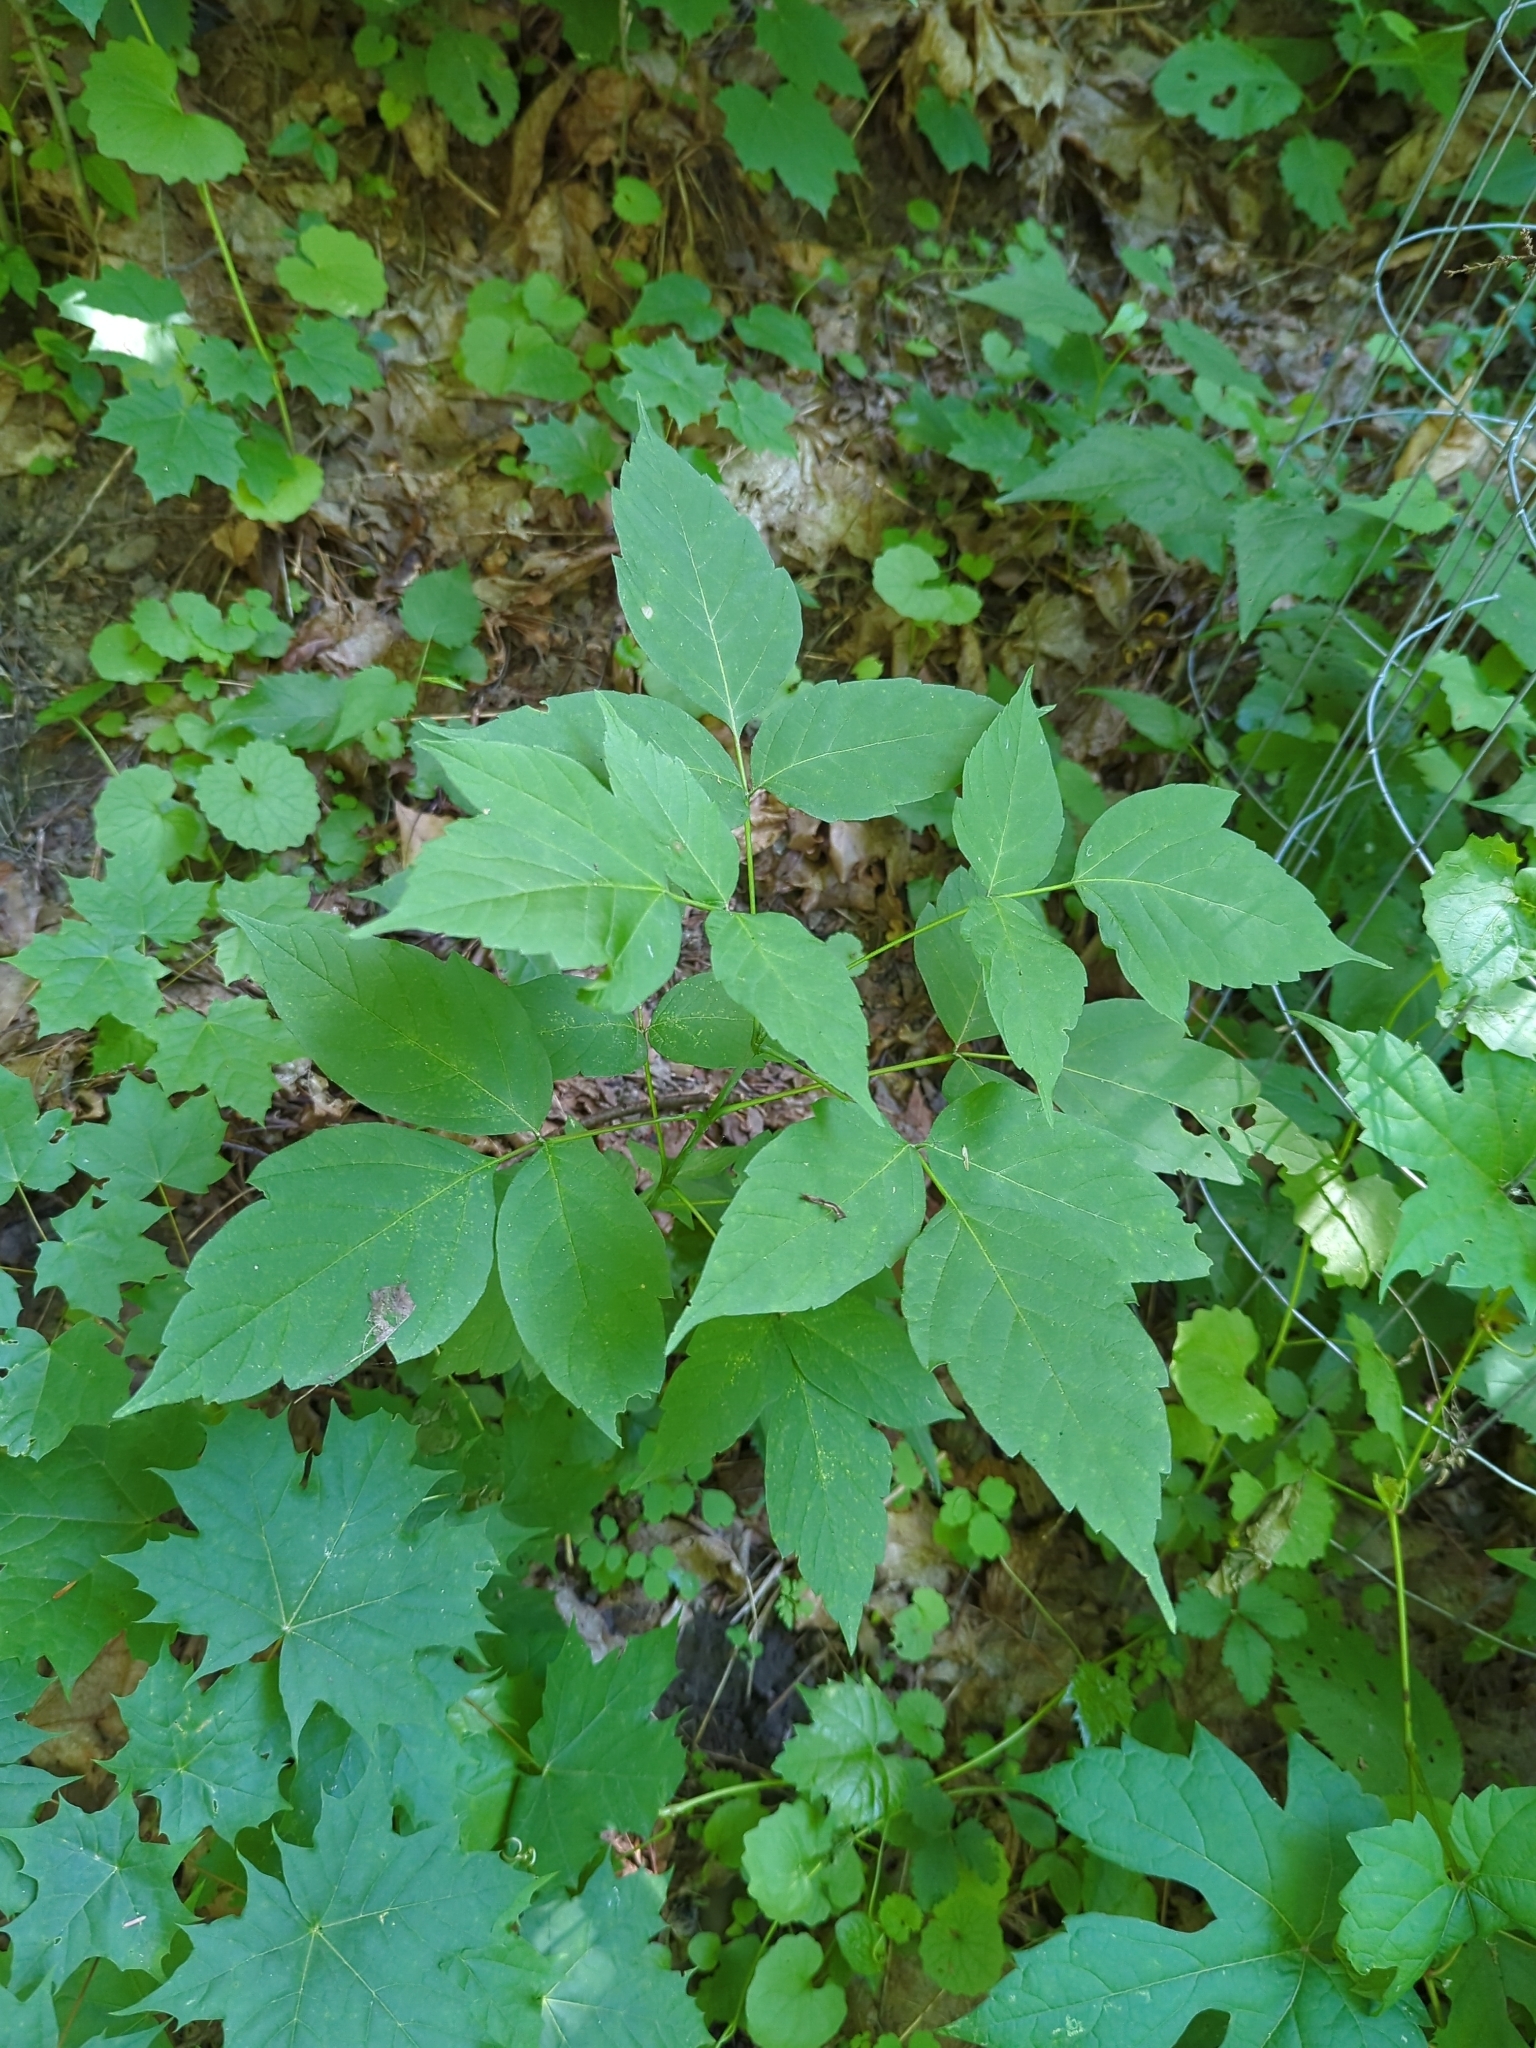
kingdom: Plantae
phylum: Tracheophyta
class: Magnoliopsida
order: Sapindales
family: Sapindaceae
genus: Acer
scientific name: Acer negundo
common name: Ashleaf maple
